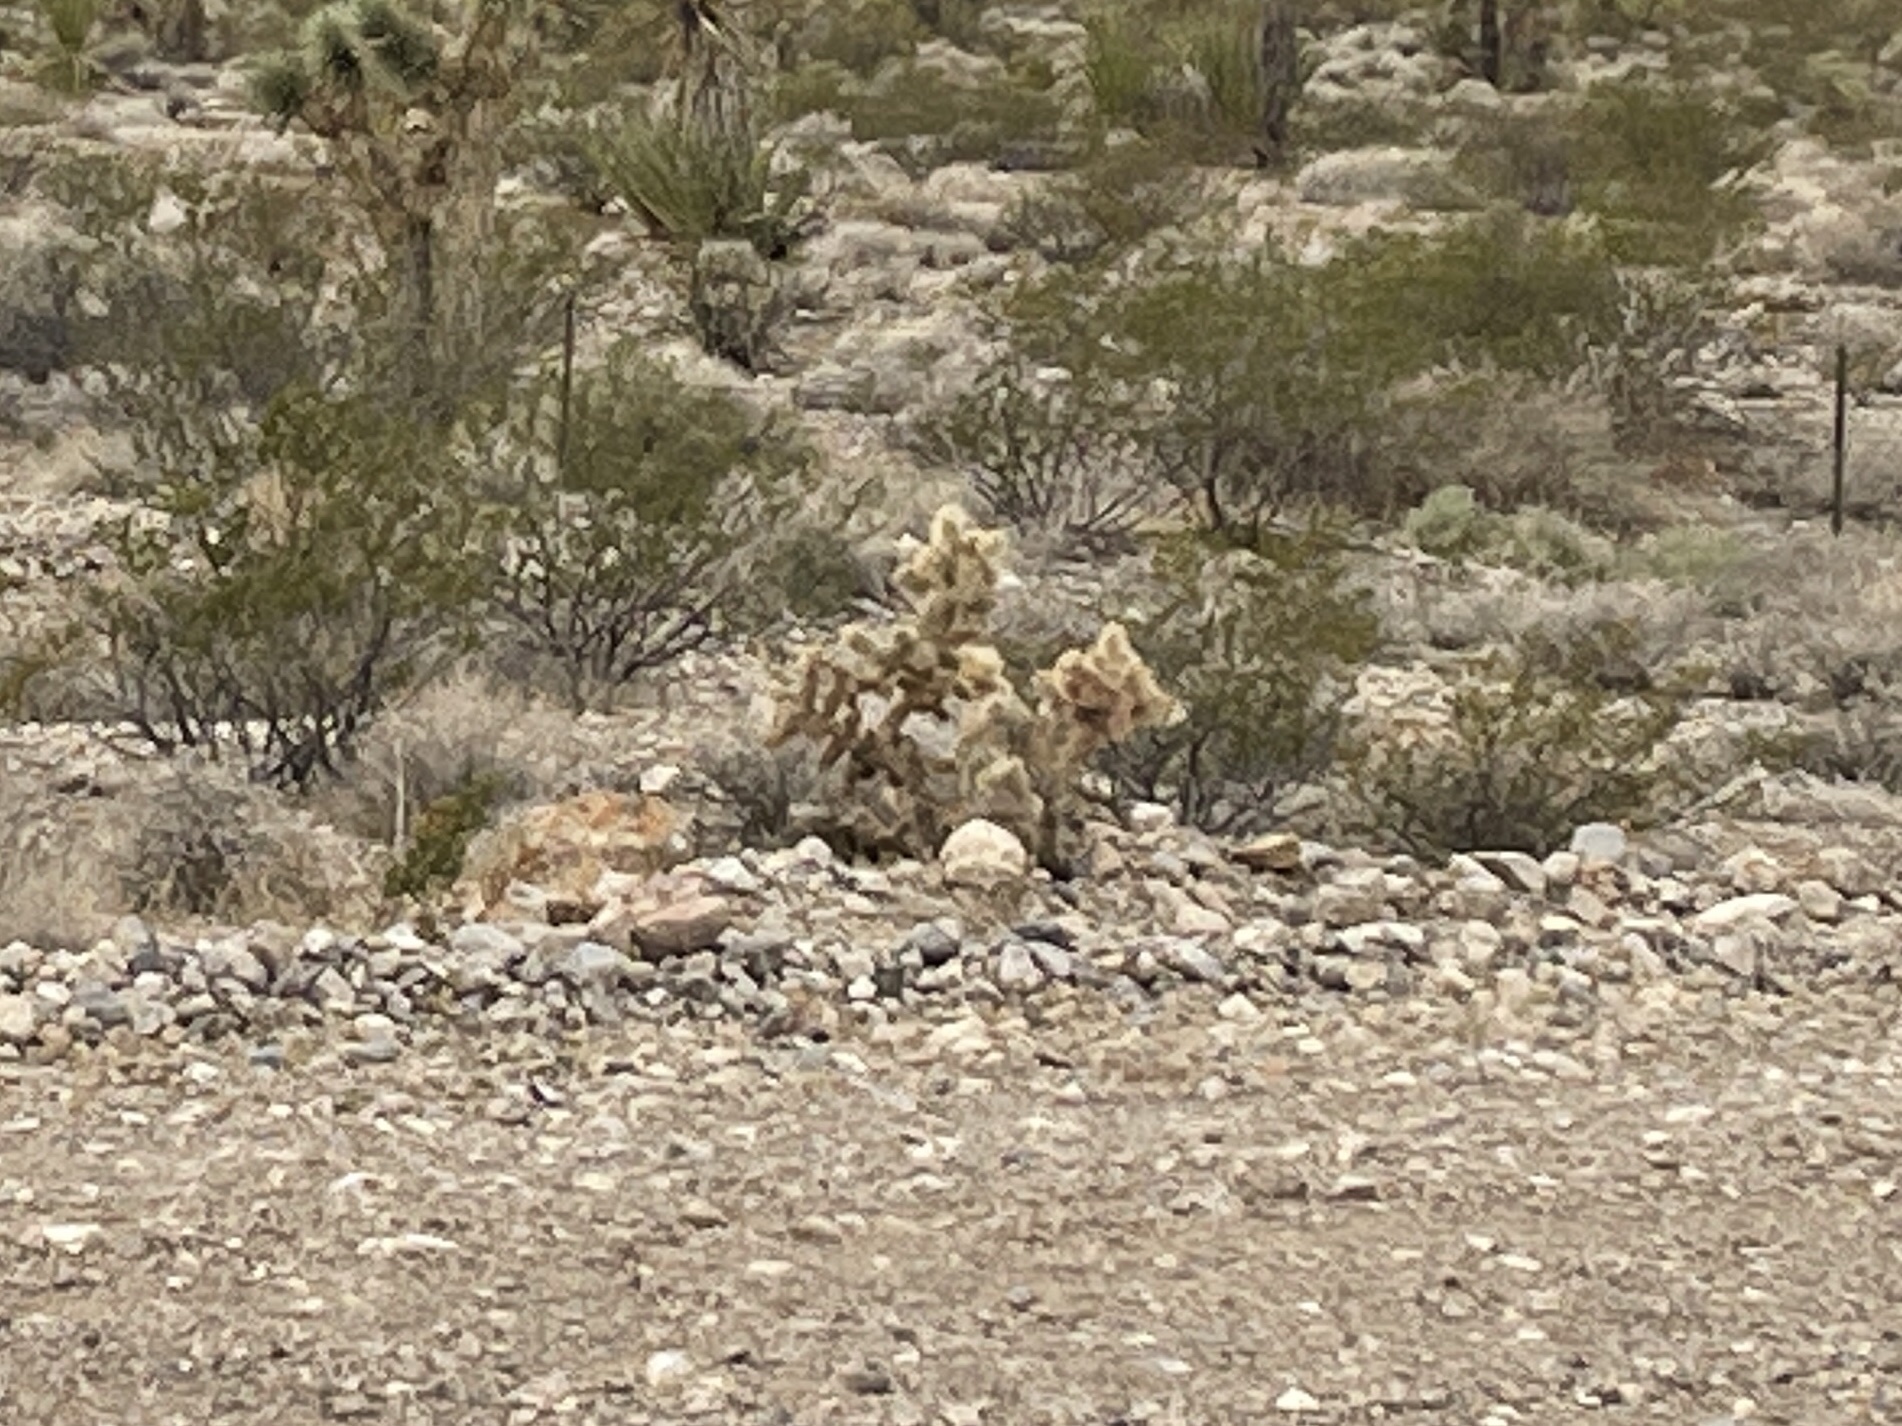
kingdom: Plantae
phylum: Tracheophyta
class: Magnoliopsida
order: Caryophyllales
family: Cactaceae
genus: Cylindropuntia
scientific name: Cylindropuntia echinocarpa
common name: Ground cholla
